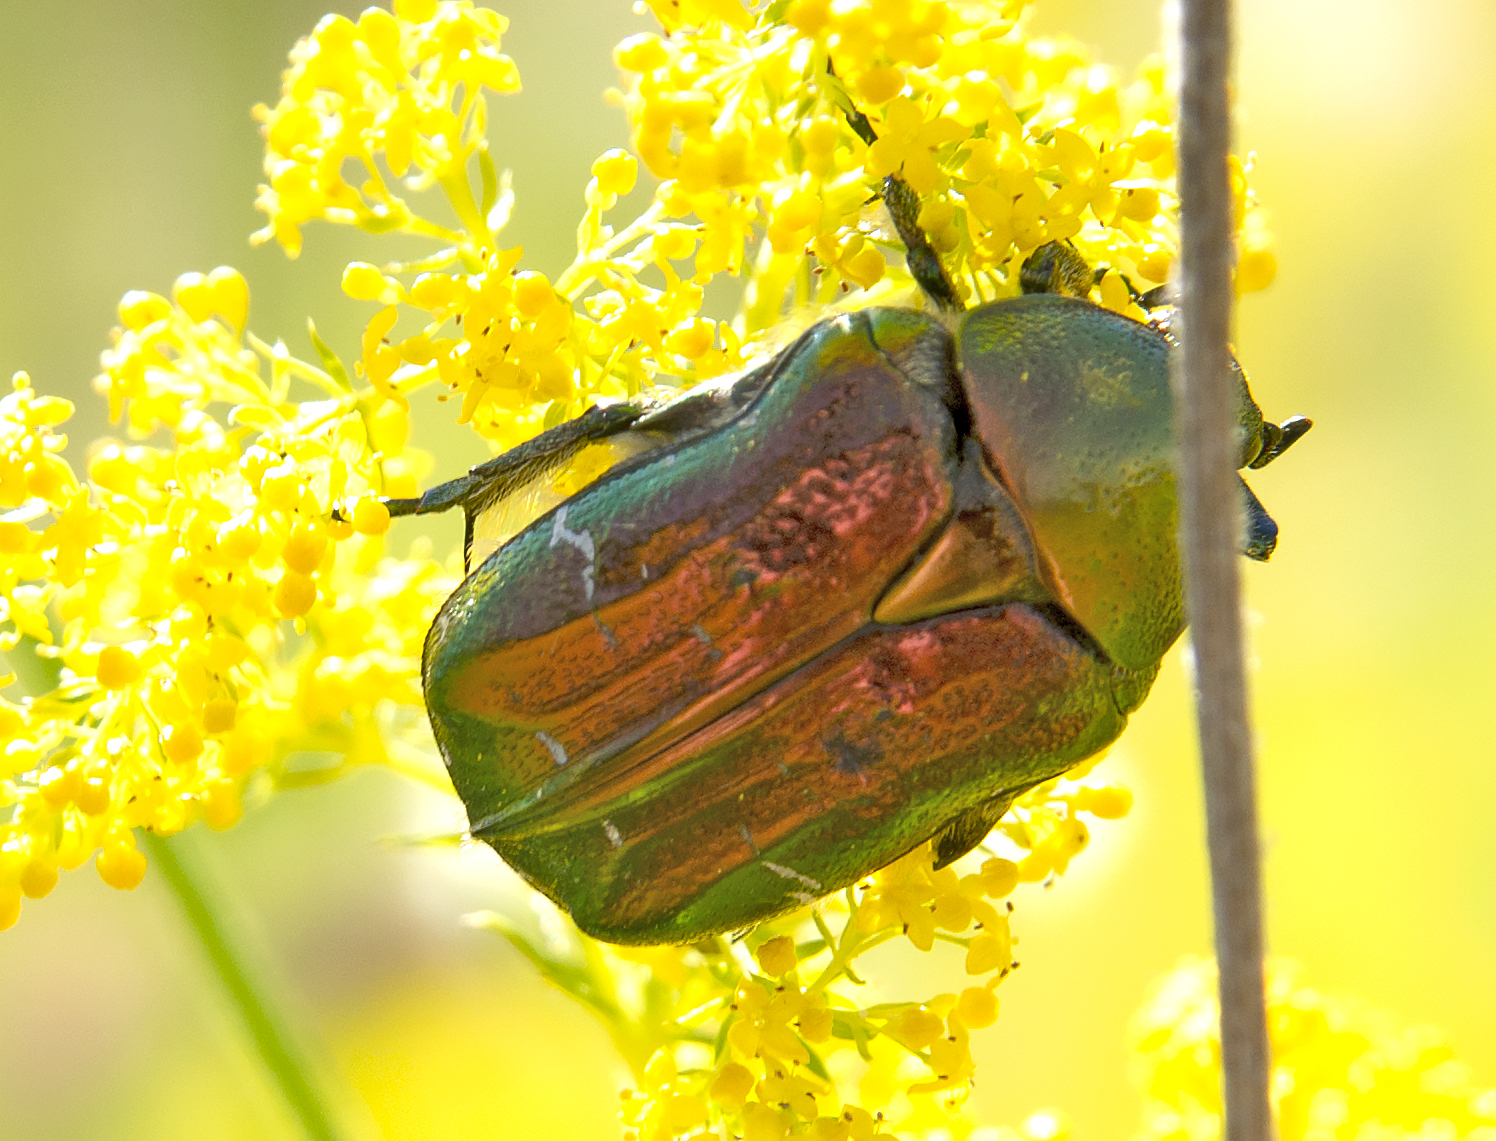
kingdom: Animalia
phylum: Arthropoda
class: Insecta
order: Coleoptera
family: Scarabaeidae
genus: Cetonia
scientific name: Cetonia aurata
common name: Rose chafer
